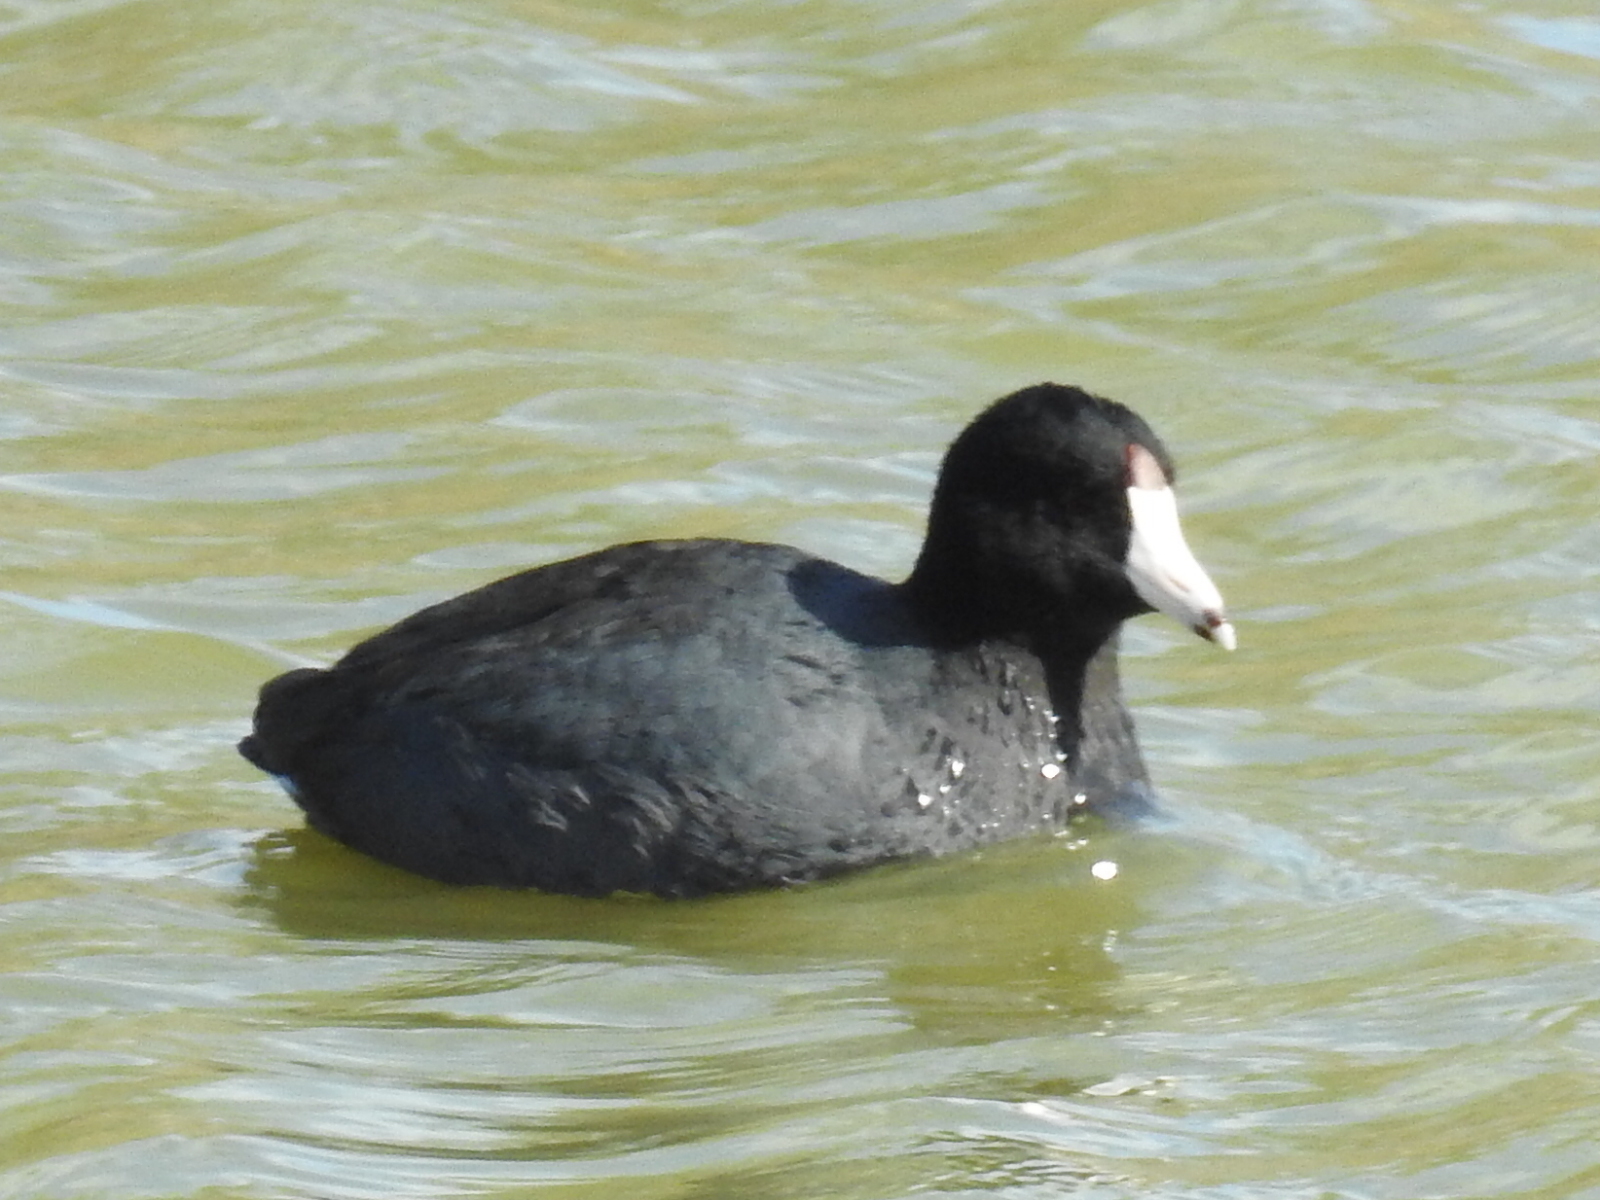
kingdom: Animalia
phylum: Chordata
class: Aves
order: Gruiformes
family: Rallidae
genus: Fulica
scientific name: Fulica americana
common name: American coot
